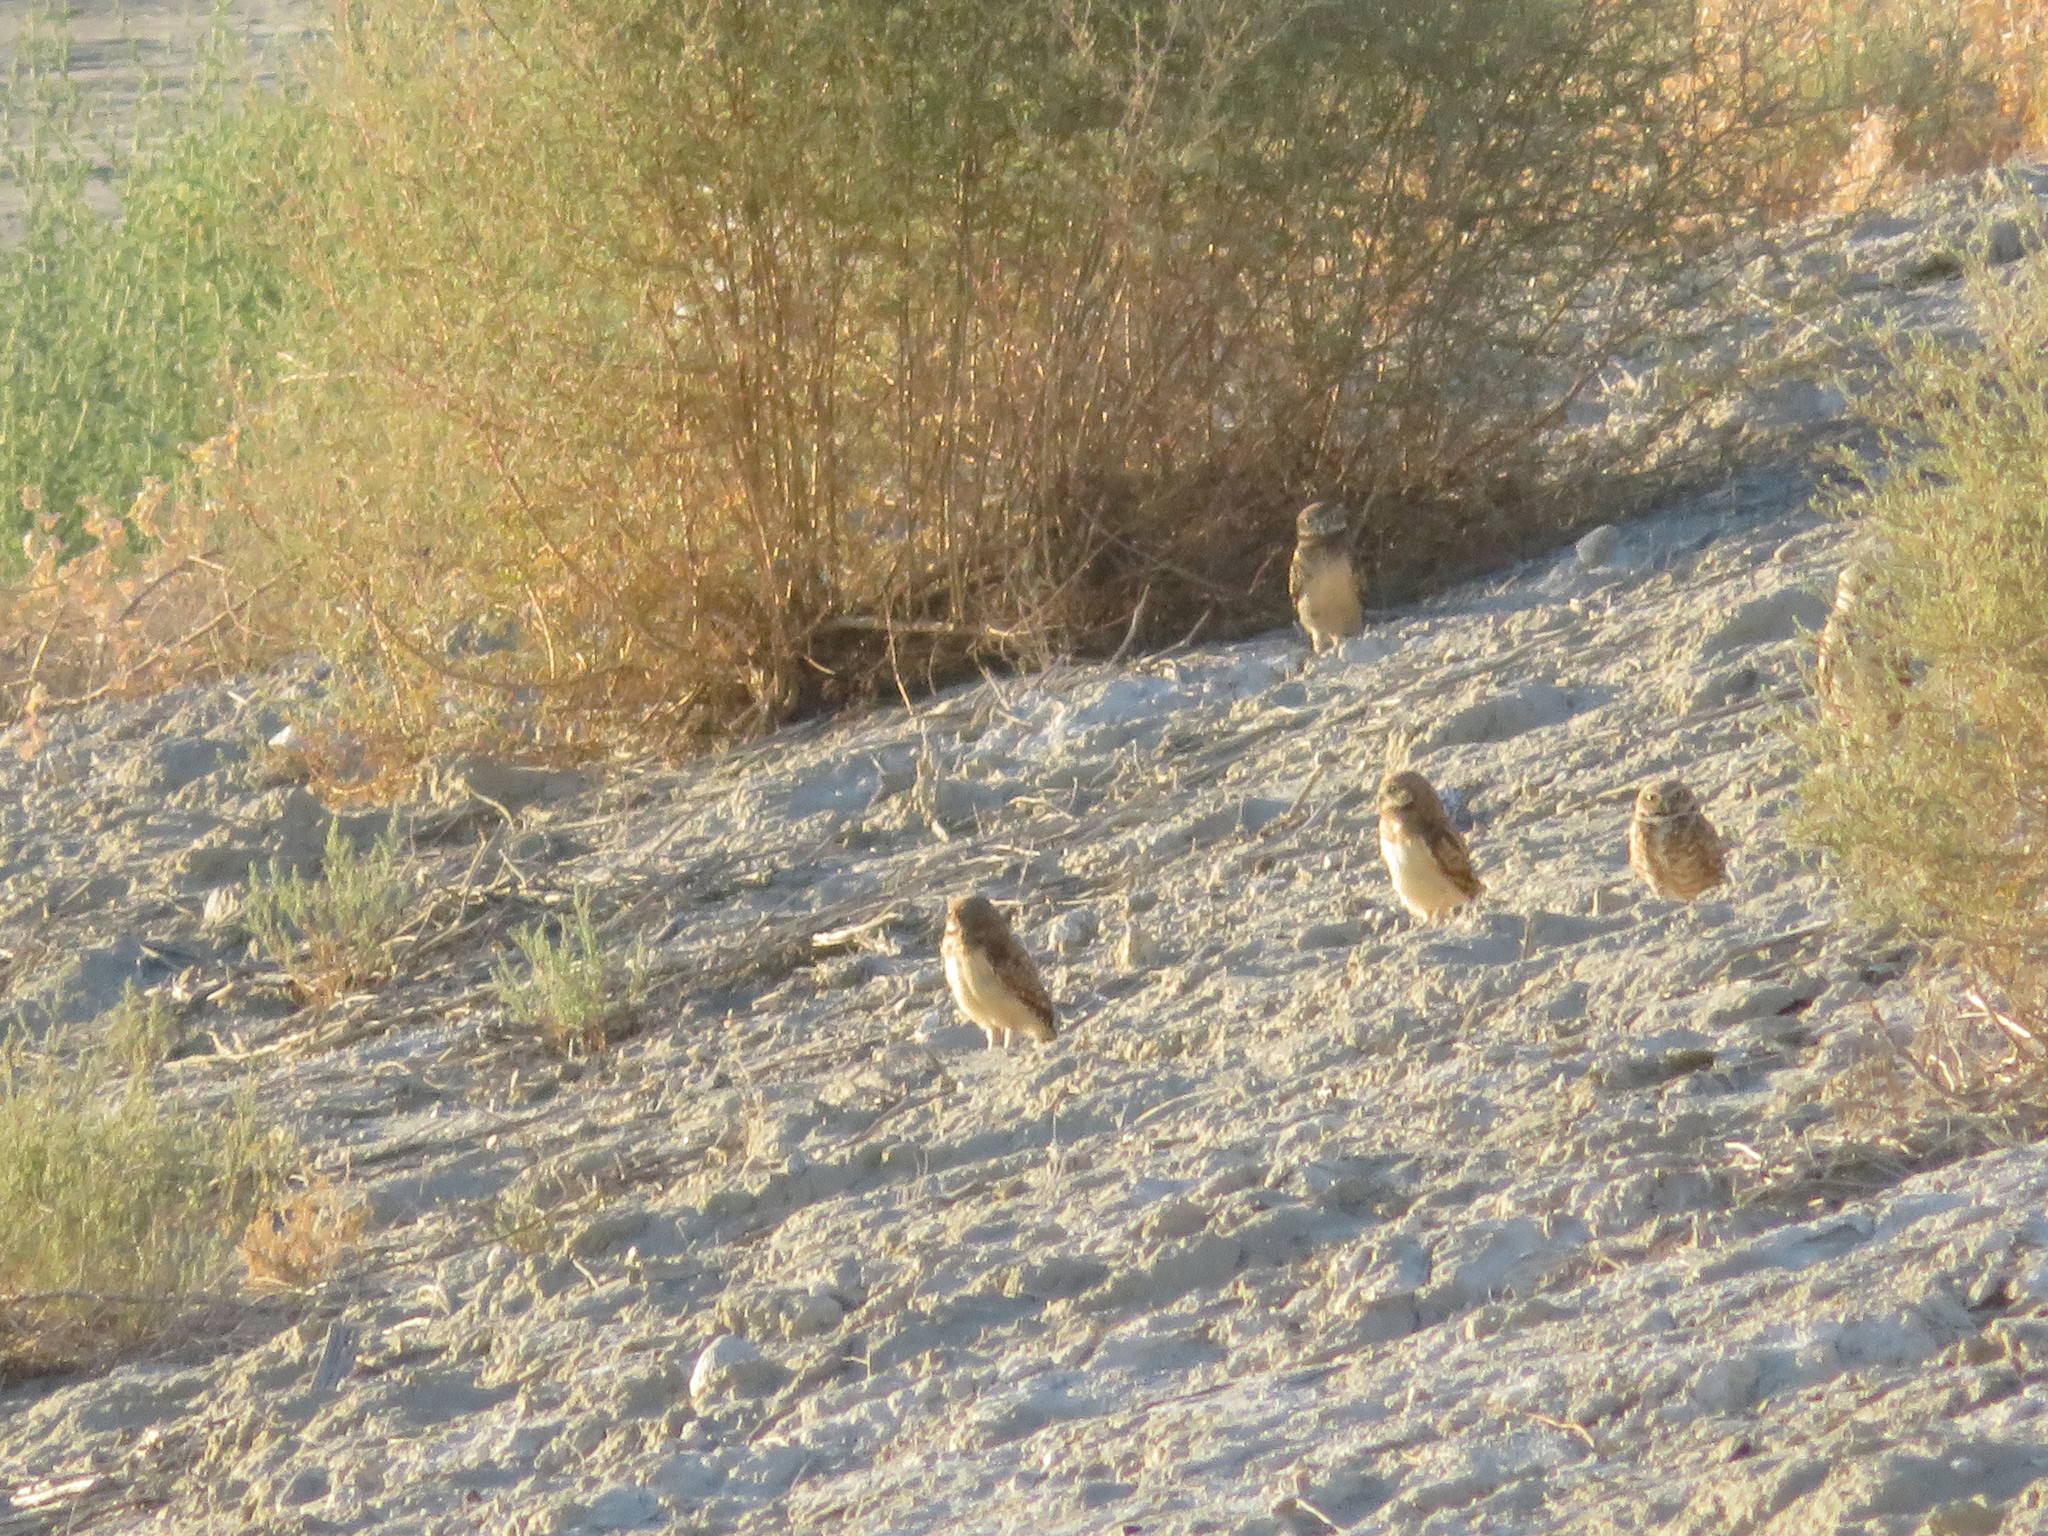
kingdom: Animalia
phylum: Chordata
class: Aves
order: Strigiformes
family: Strigidae
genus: Athene
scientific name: Athene cunicularia
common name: Burrowing owl
